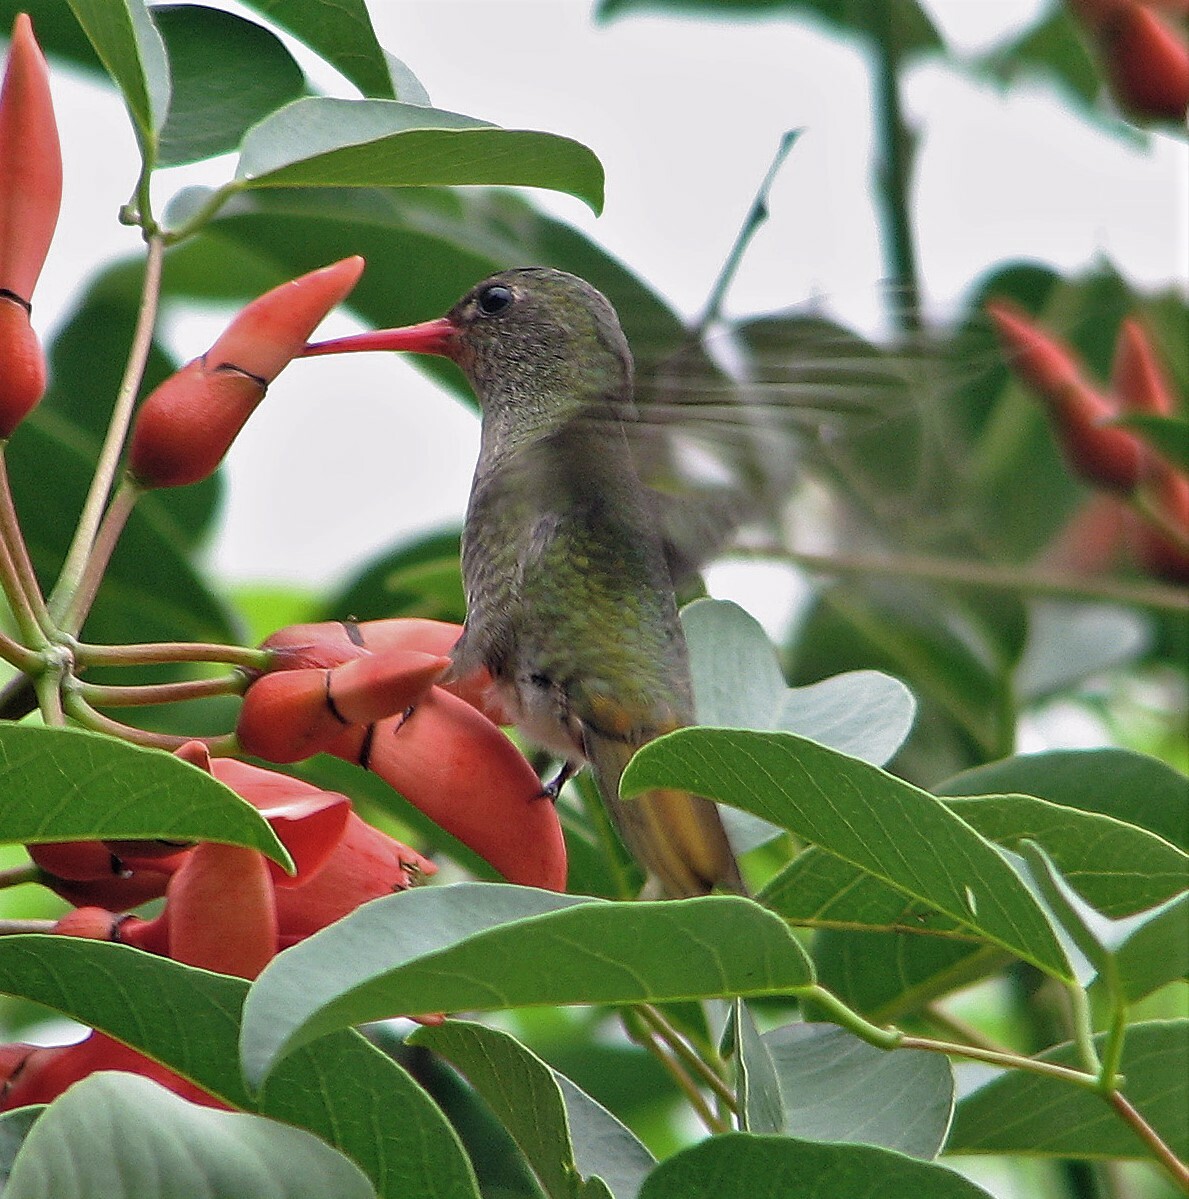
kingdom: Animalia
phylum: Chordata
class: Aves
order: Apodiformes
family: Trochilidae
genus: Hylocharis
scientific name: Hylocharis chrysura
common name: Gilded sapphire
